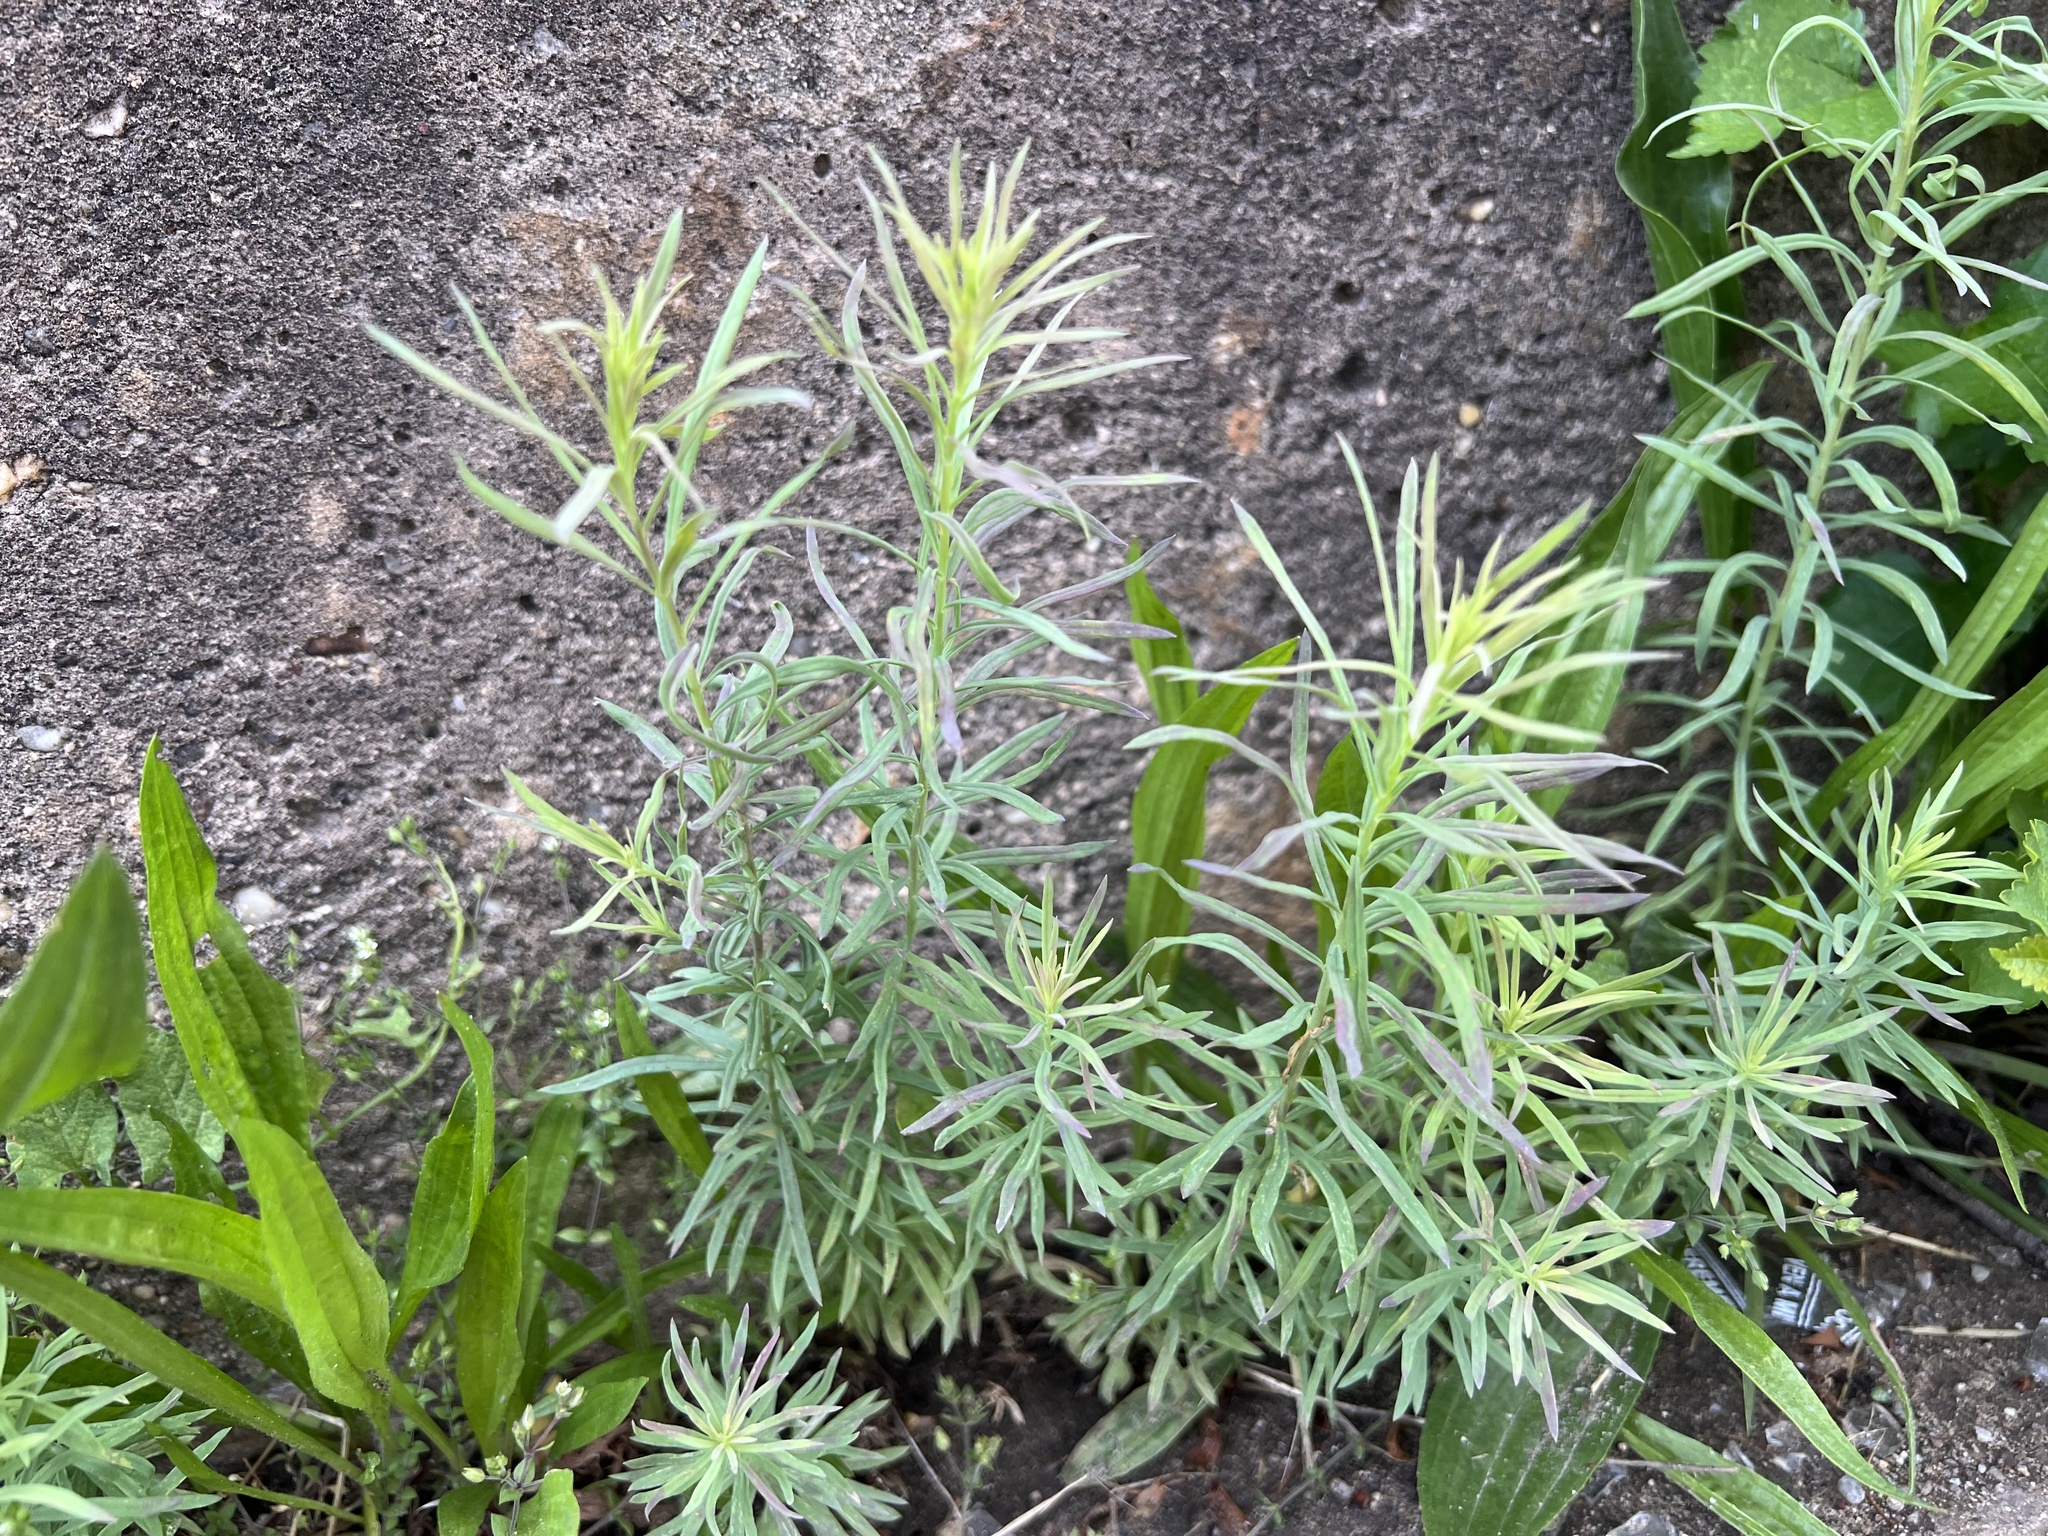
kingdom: Plantae
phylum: Tracheophyta
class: Magnoliopsida
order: Lamiales
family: Plantaginaceae
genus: Linaria
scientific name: Linaria vulgaris
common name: Butter and eggs
